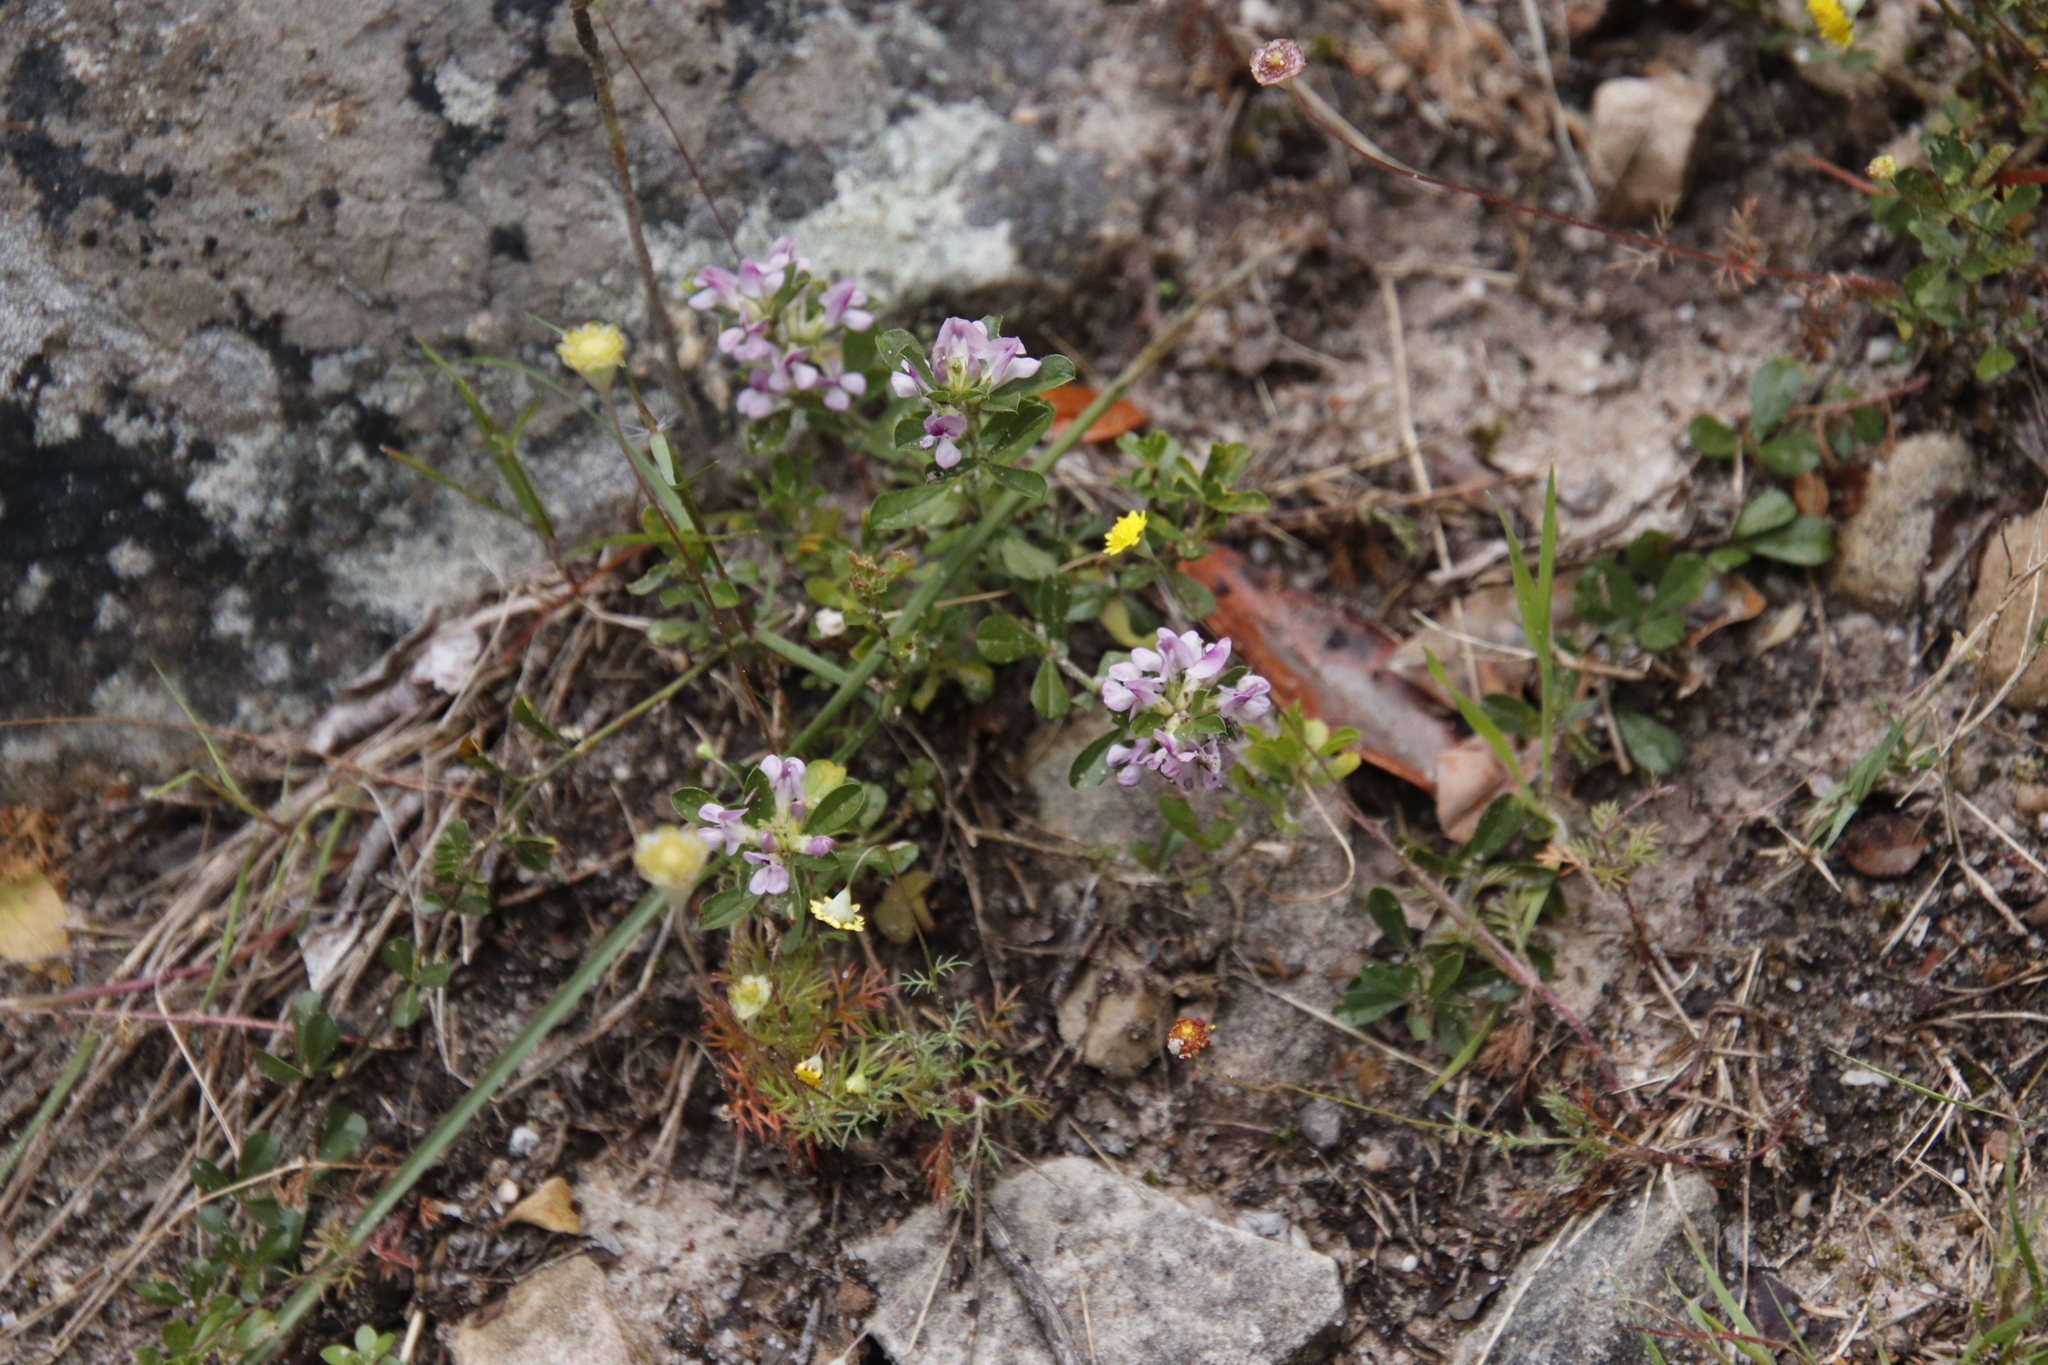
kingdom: Plantae
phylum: Tracheophyta
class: Magnoliopsida
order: Fabales
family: Fabaceae
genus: Psoralea
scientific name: Psoralea
